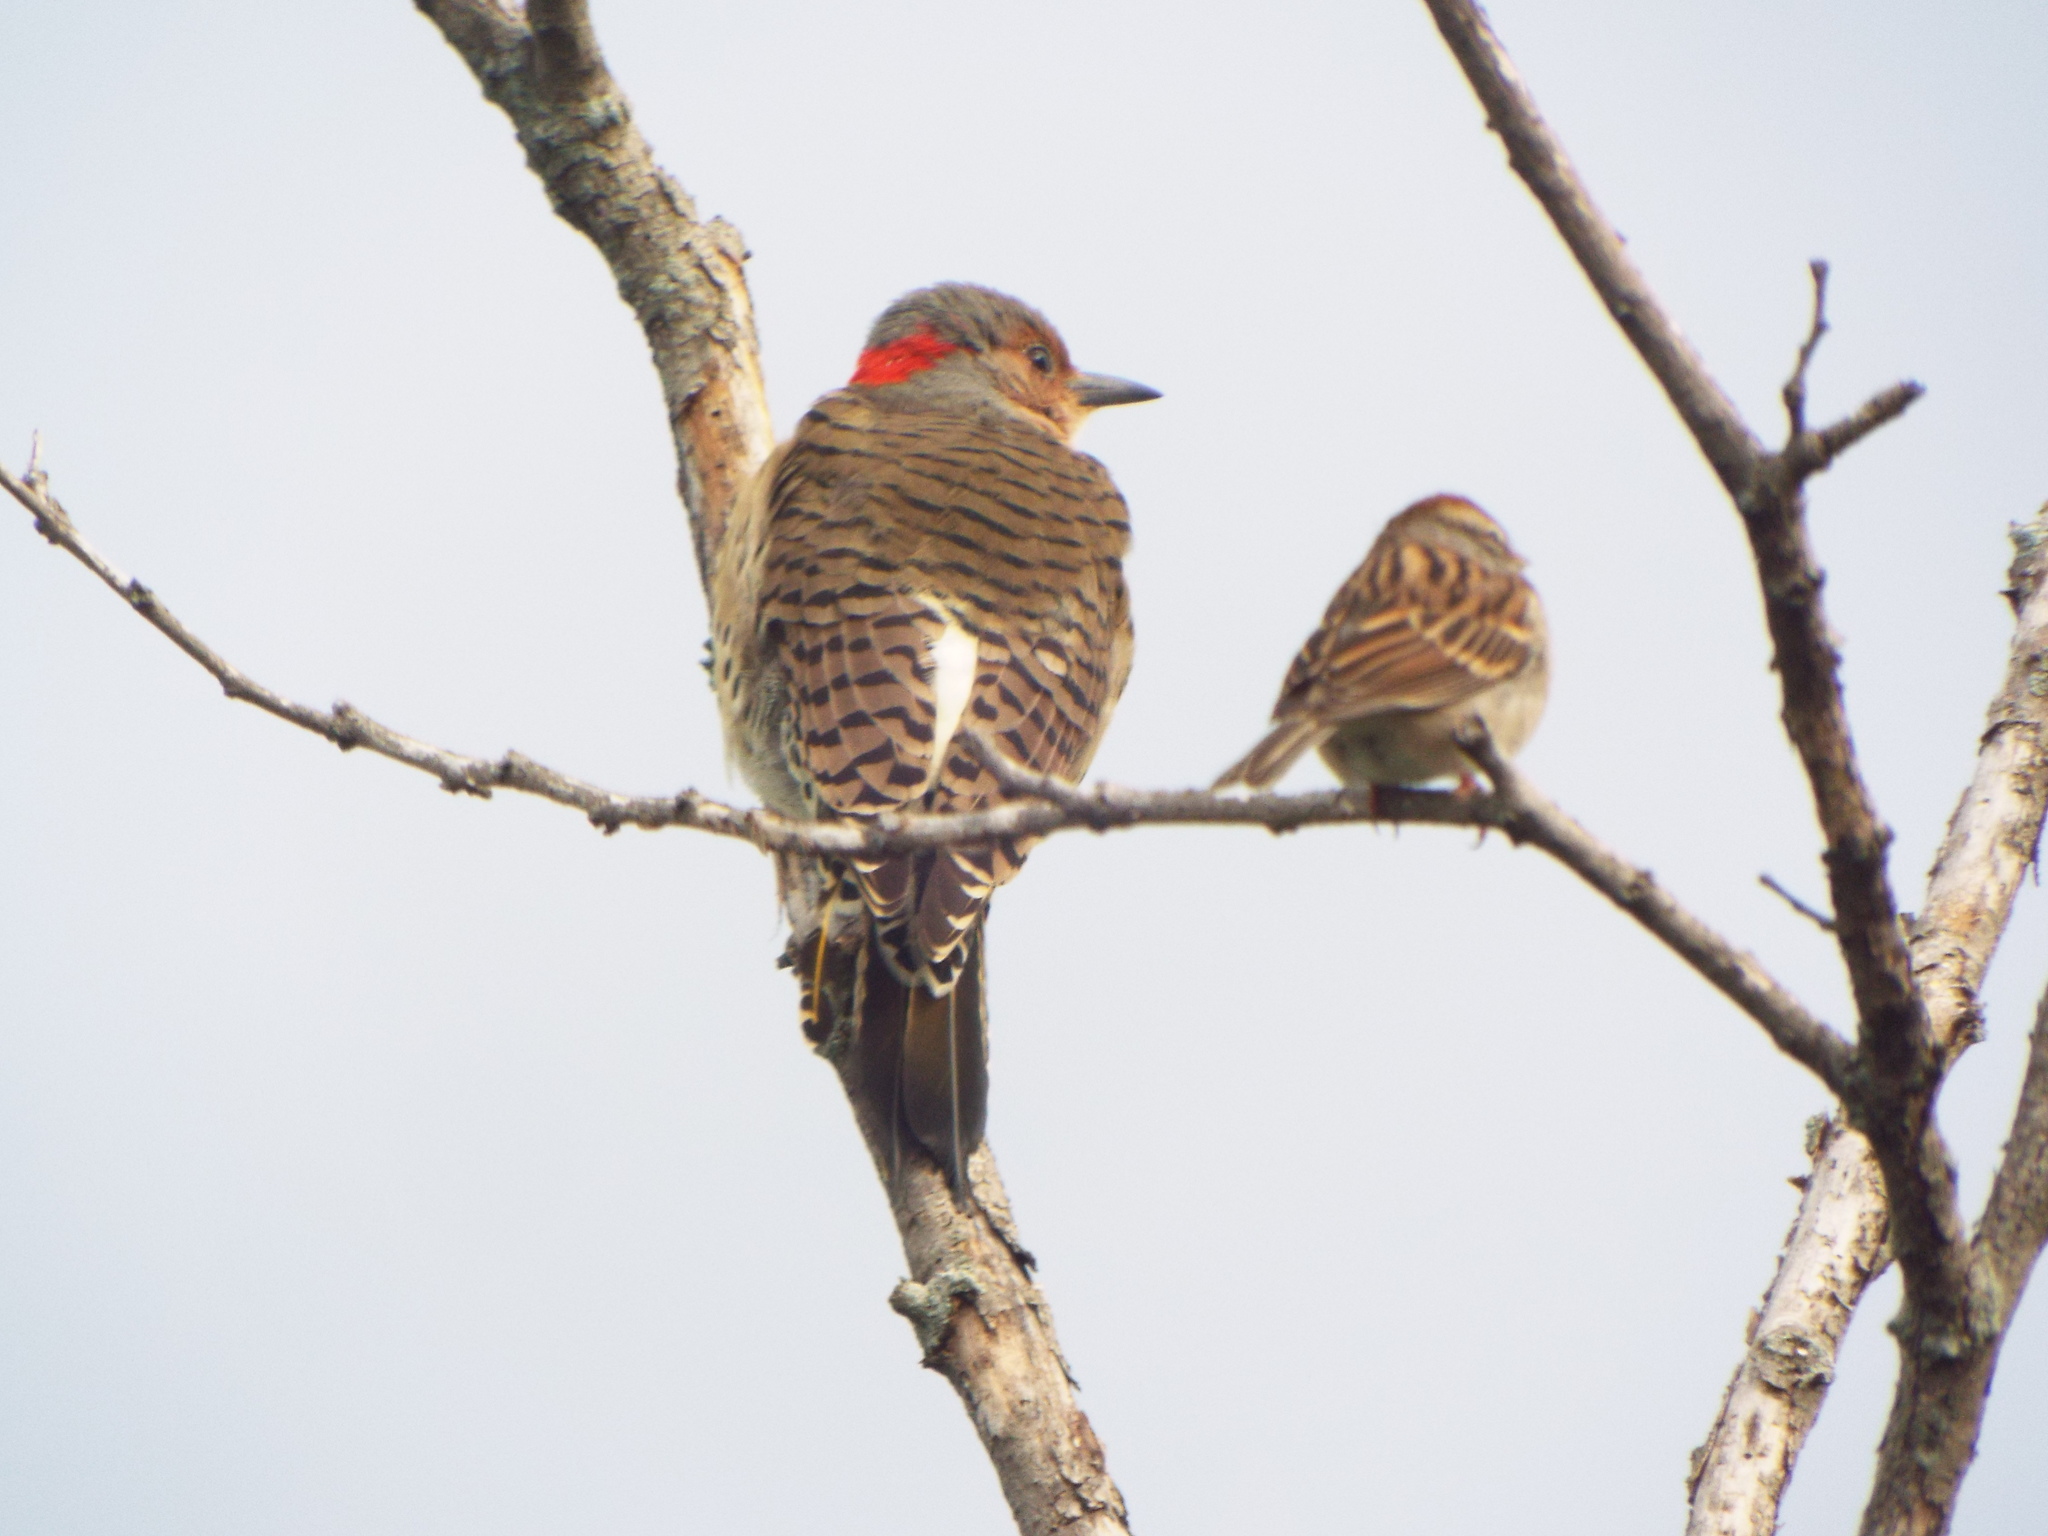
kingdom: Animalia
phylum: Chordata
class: Aves
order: Piciformes
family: Picidae
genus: Colaptes
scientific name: Colaptes auratus
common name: Northern flicker
